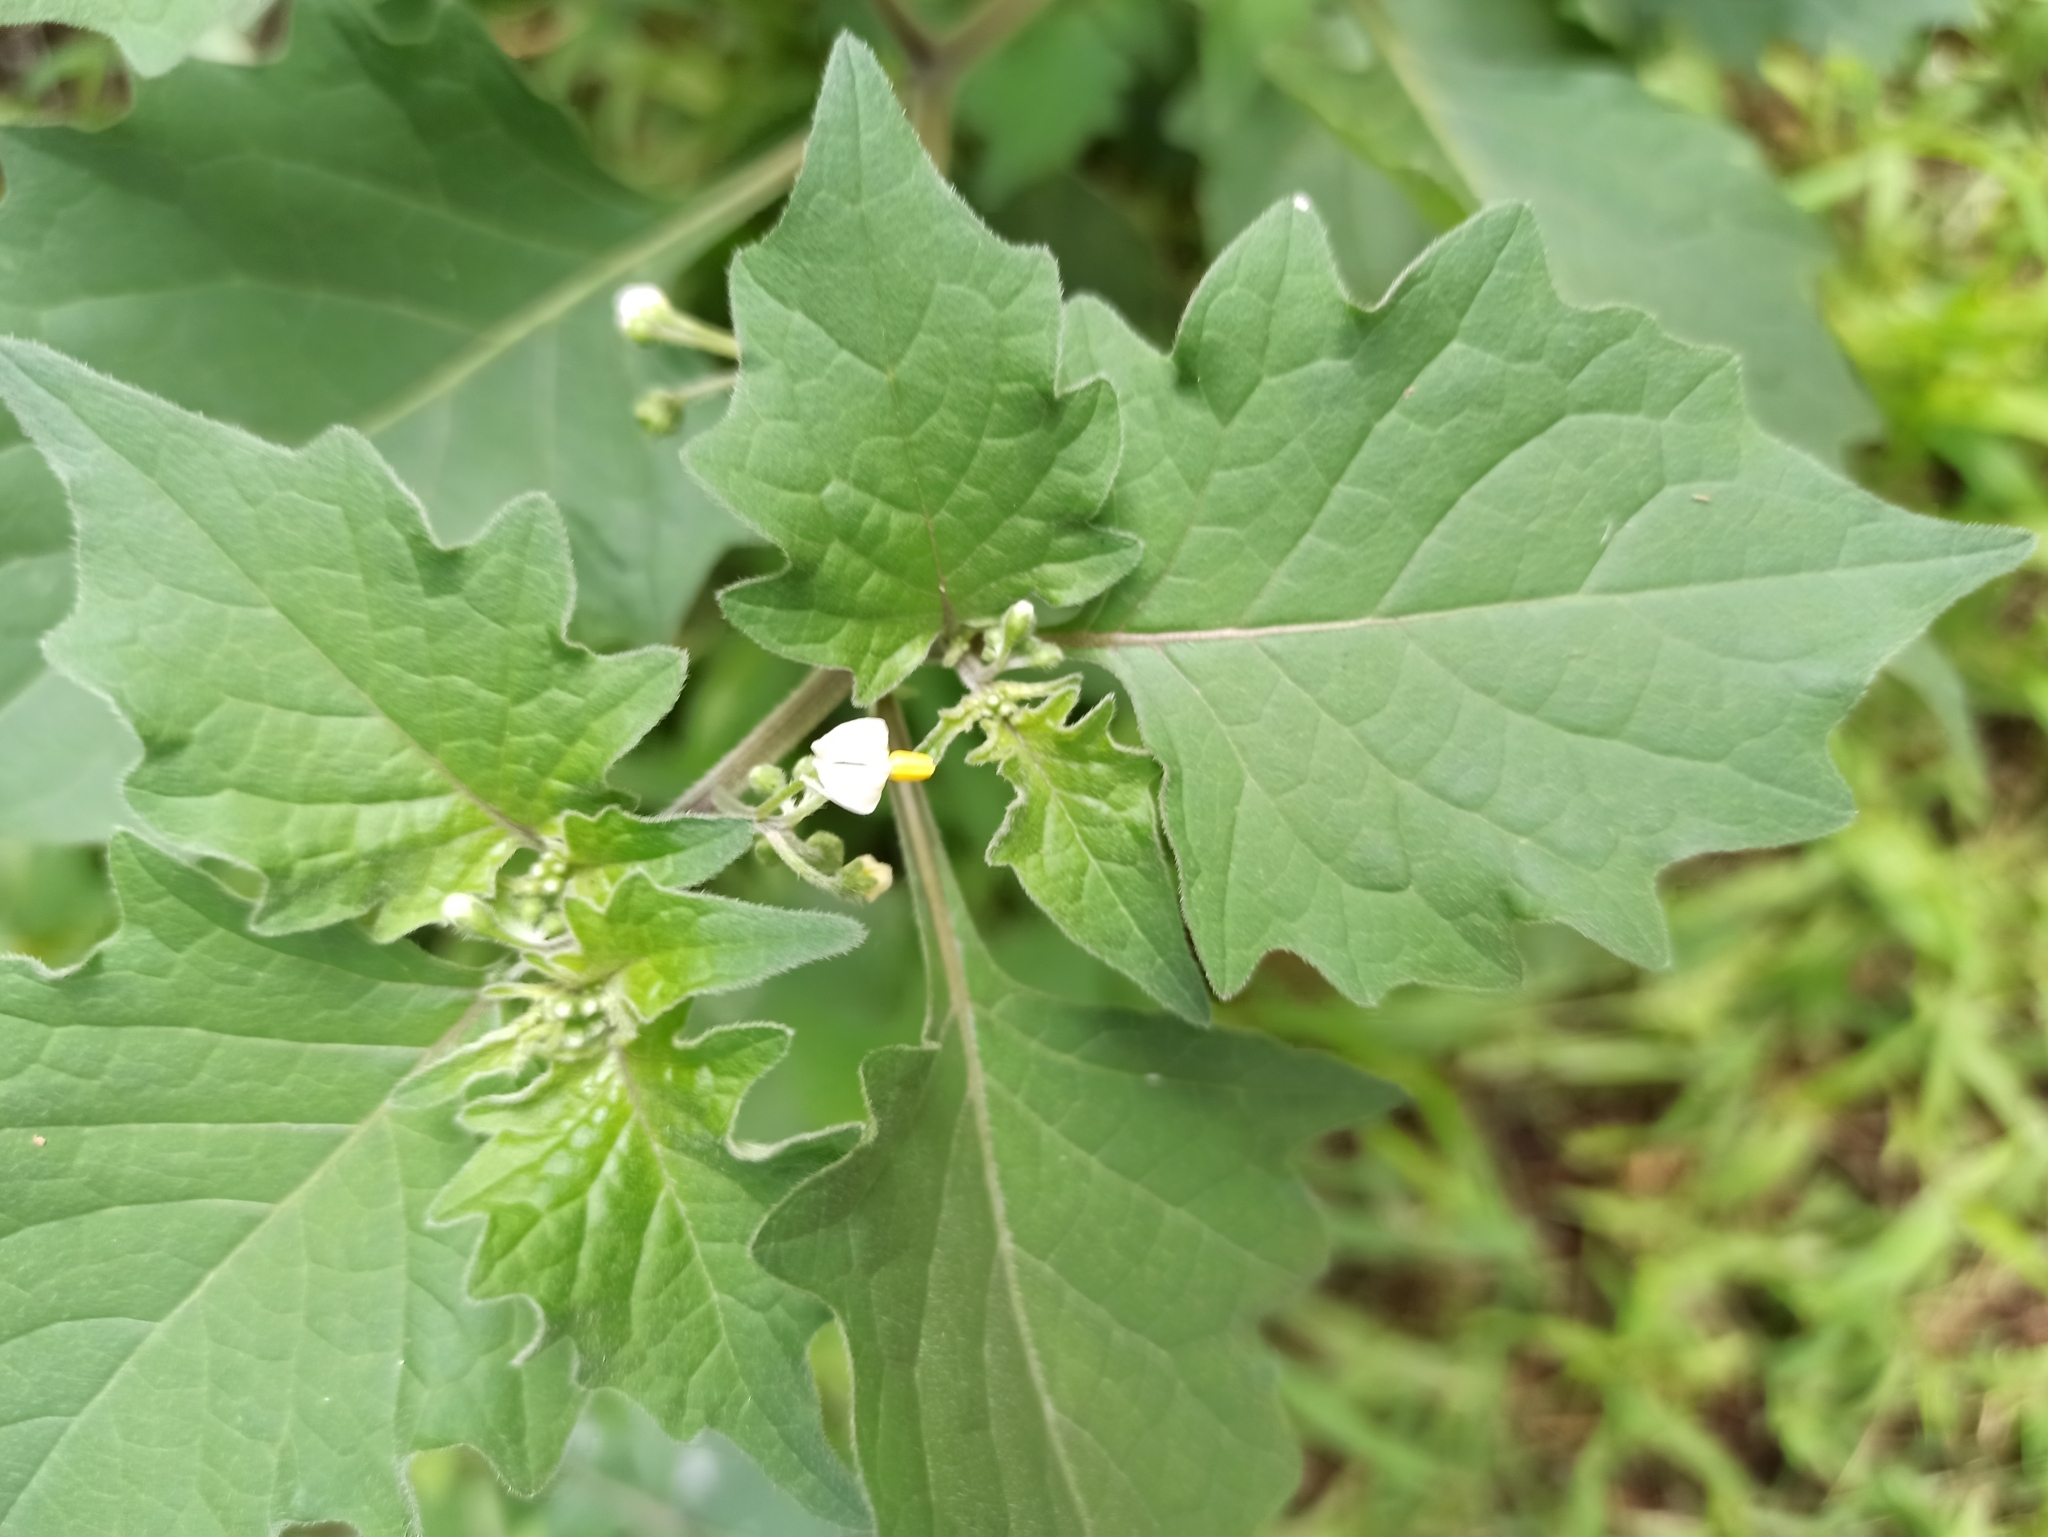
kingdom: Plantae
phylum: Tracheophyta
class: Magnoliopsida
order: Solanales
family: Solanaceae
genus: Solanum
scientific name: Solanum nigrum
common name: Black nightshade
